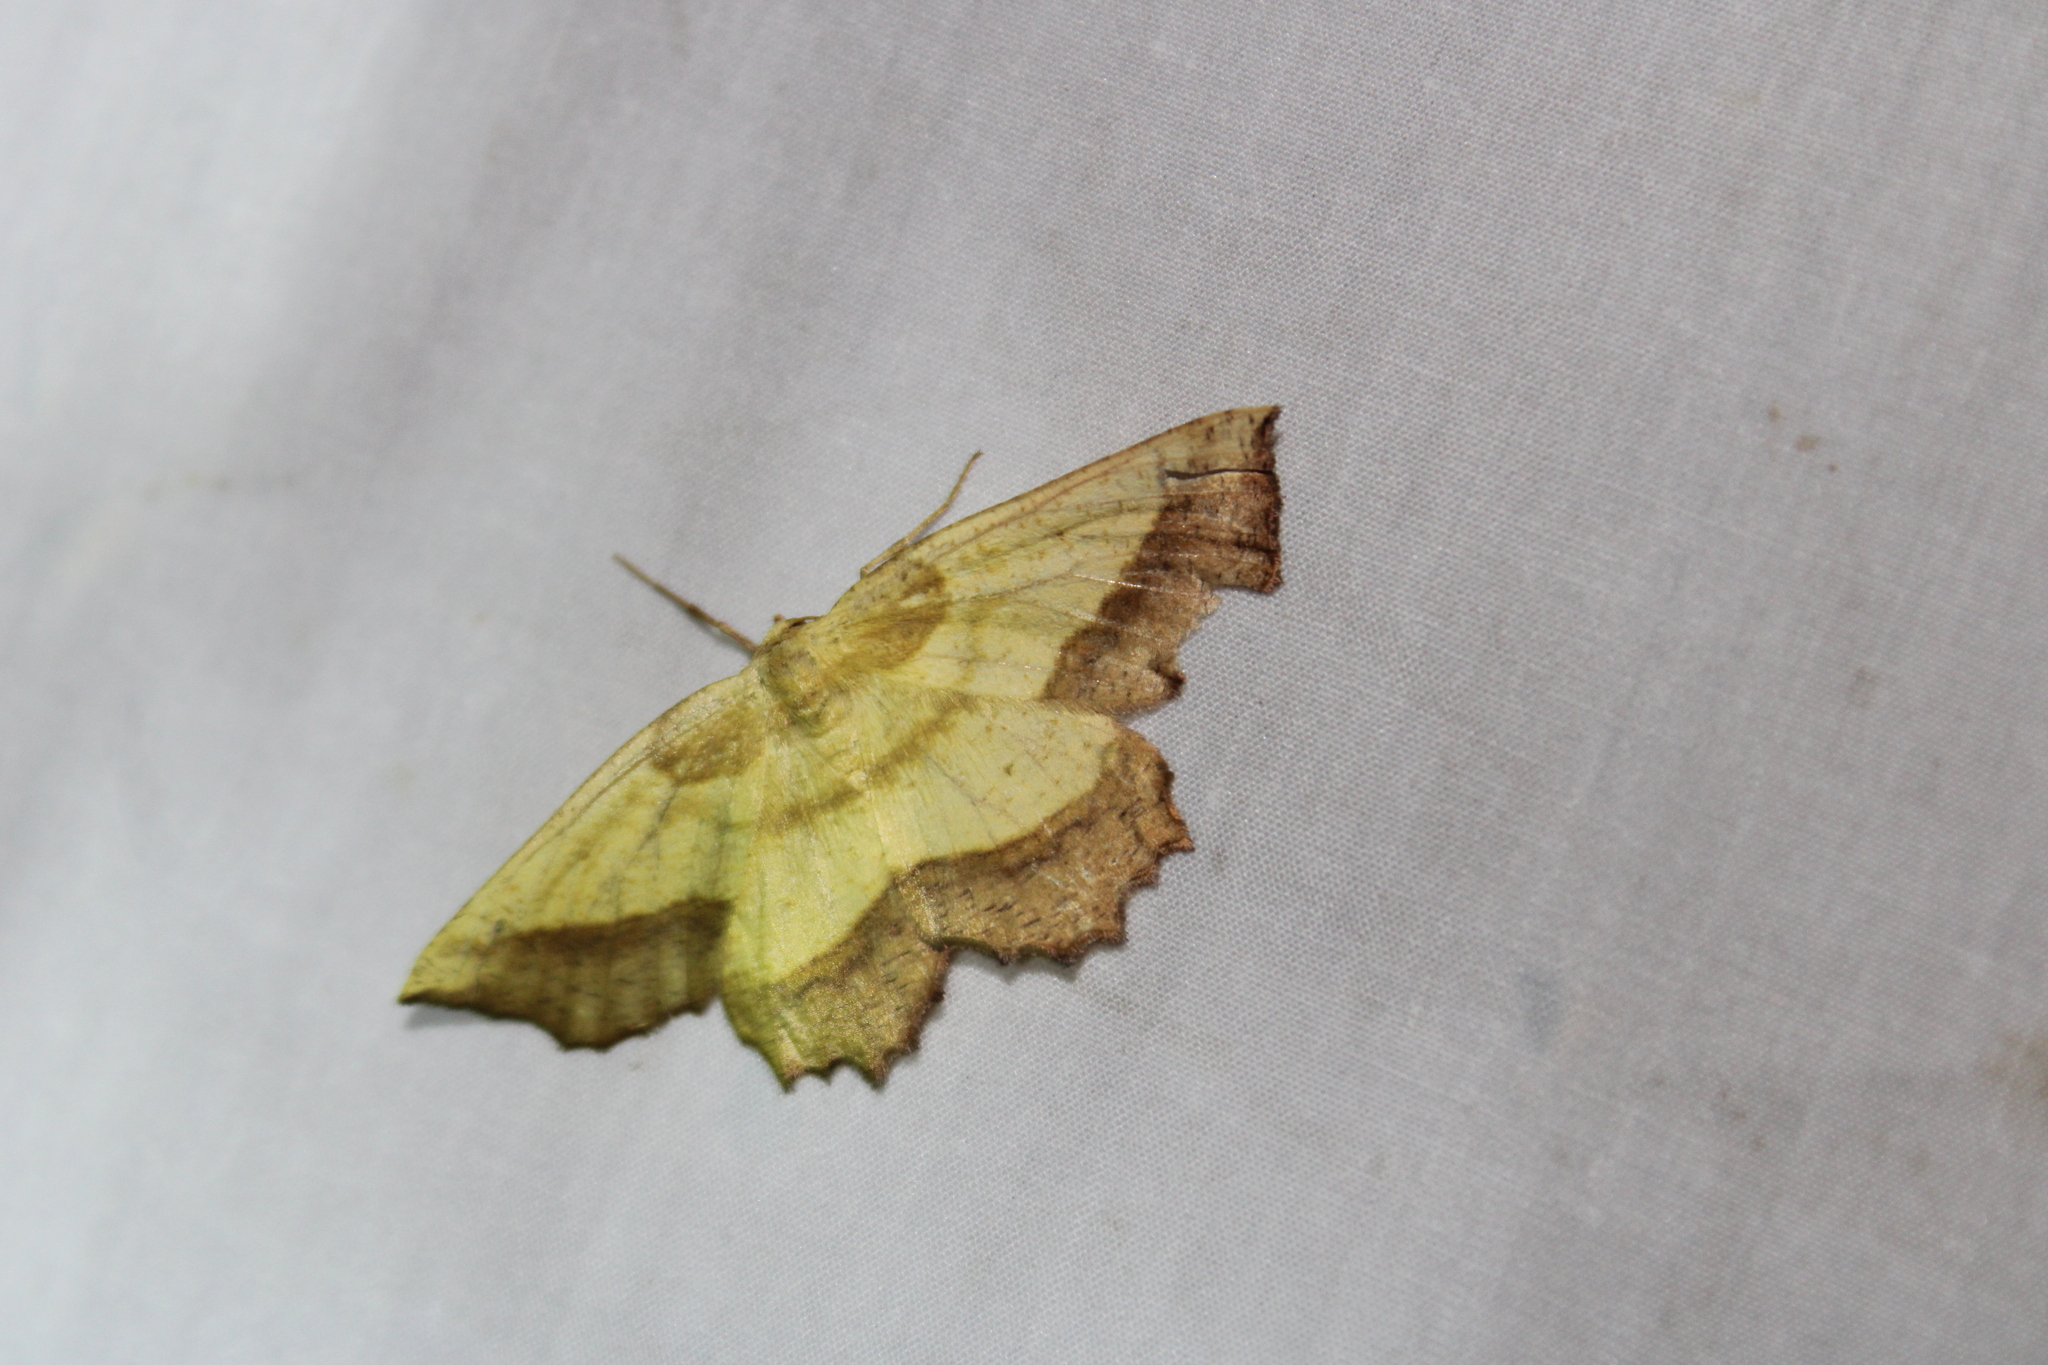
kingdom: Animalia
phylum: Arthropoda
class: Insecta
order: Lepidoptera
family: Geometridae
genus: Euchlaena
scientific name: Euchlaena serrata
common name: Saw wing
